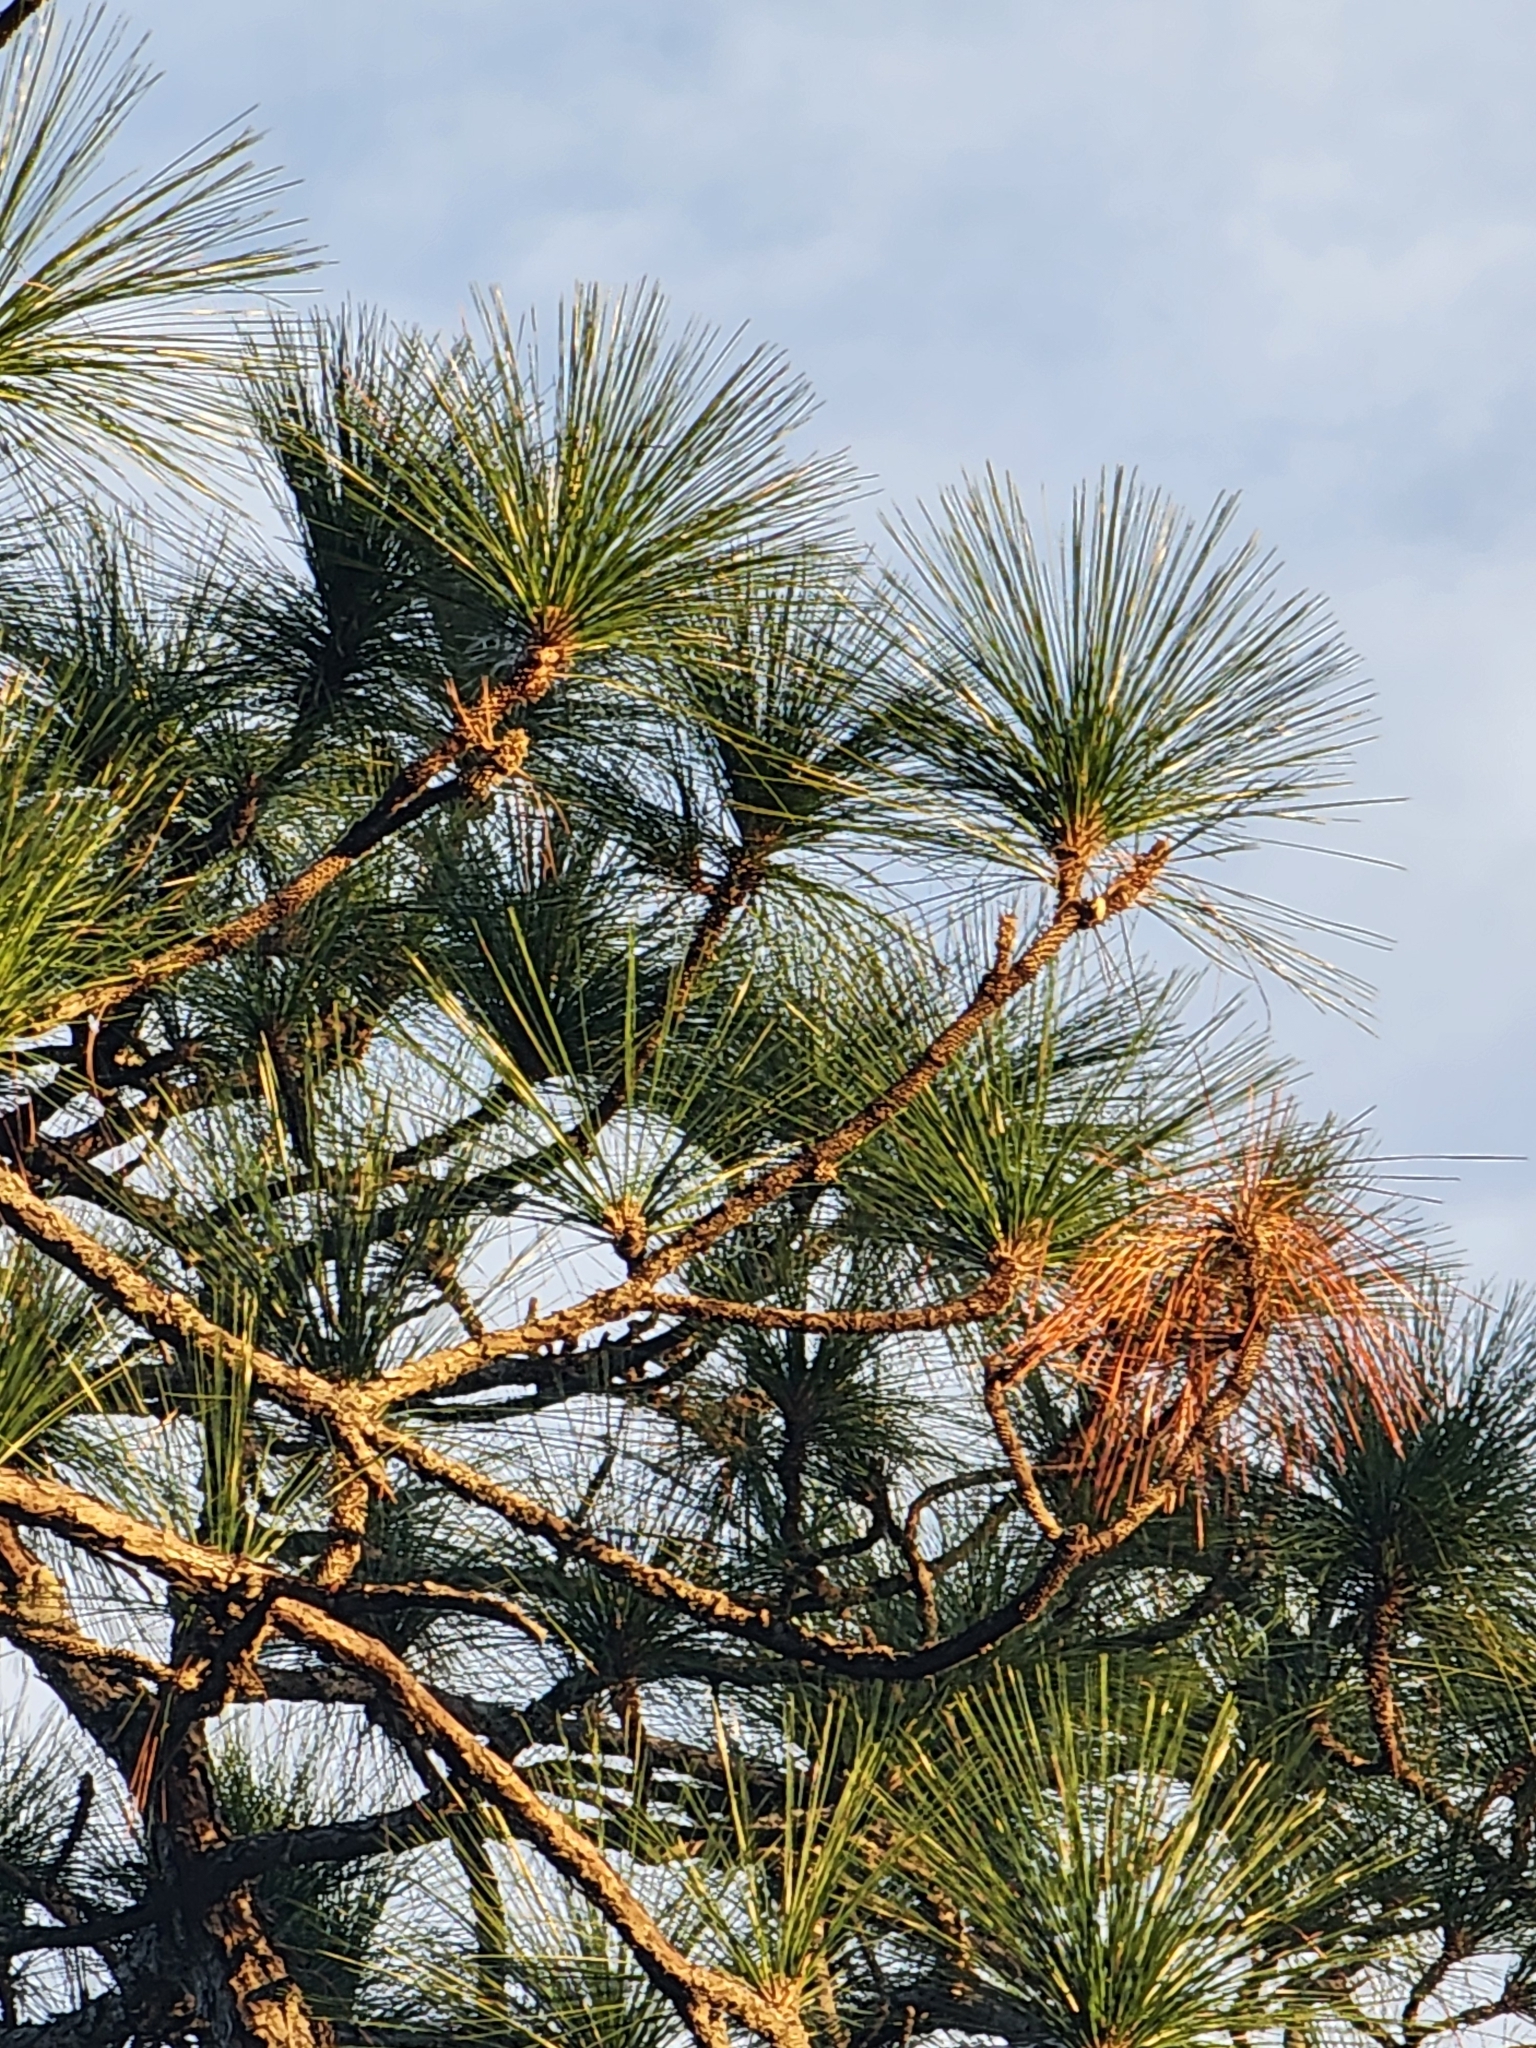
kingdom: Plantae
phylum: Tracheophyta
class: Pinopsida
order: Pinales
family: Pinaceae
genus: Pinus
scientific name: Pinus palustris
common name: Longleaf pine
